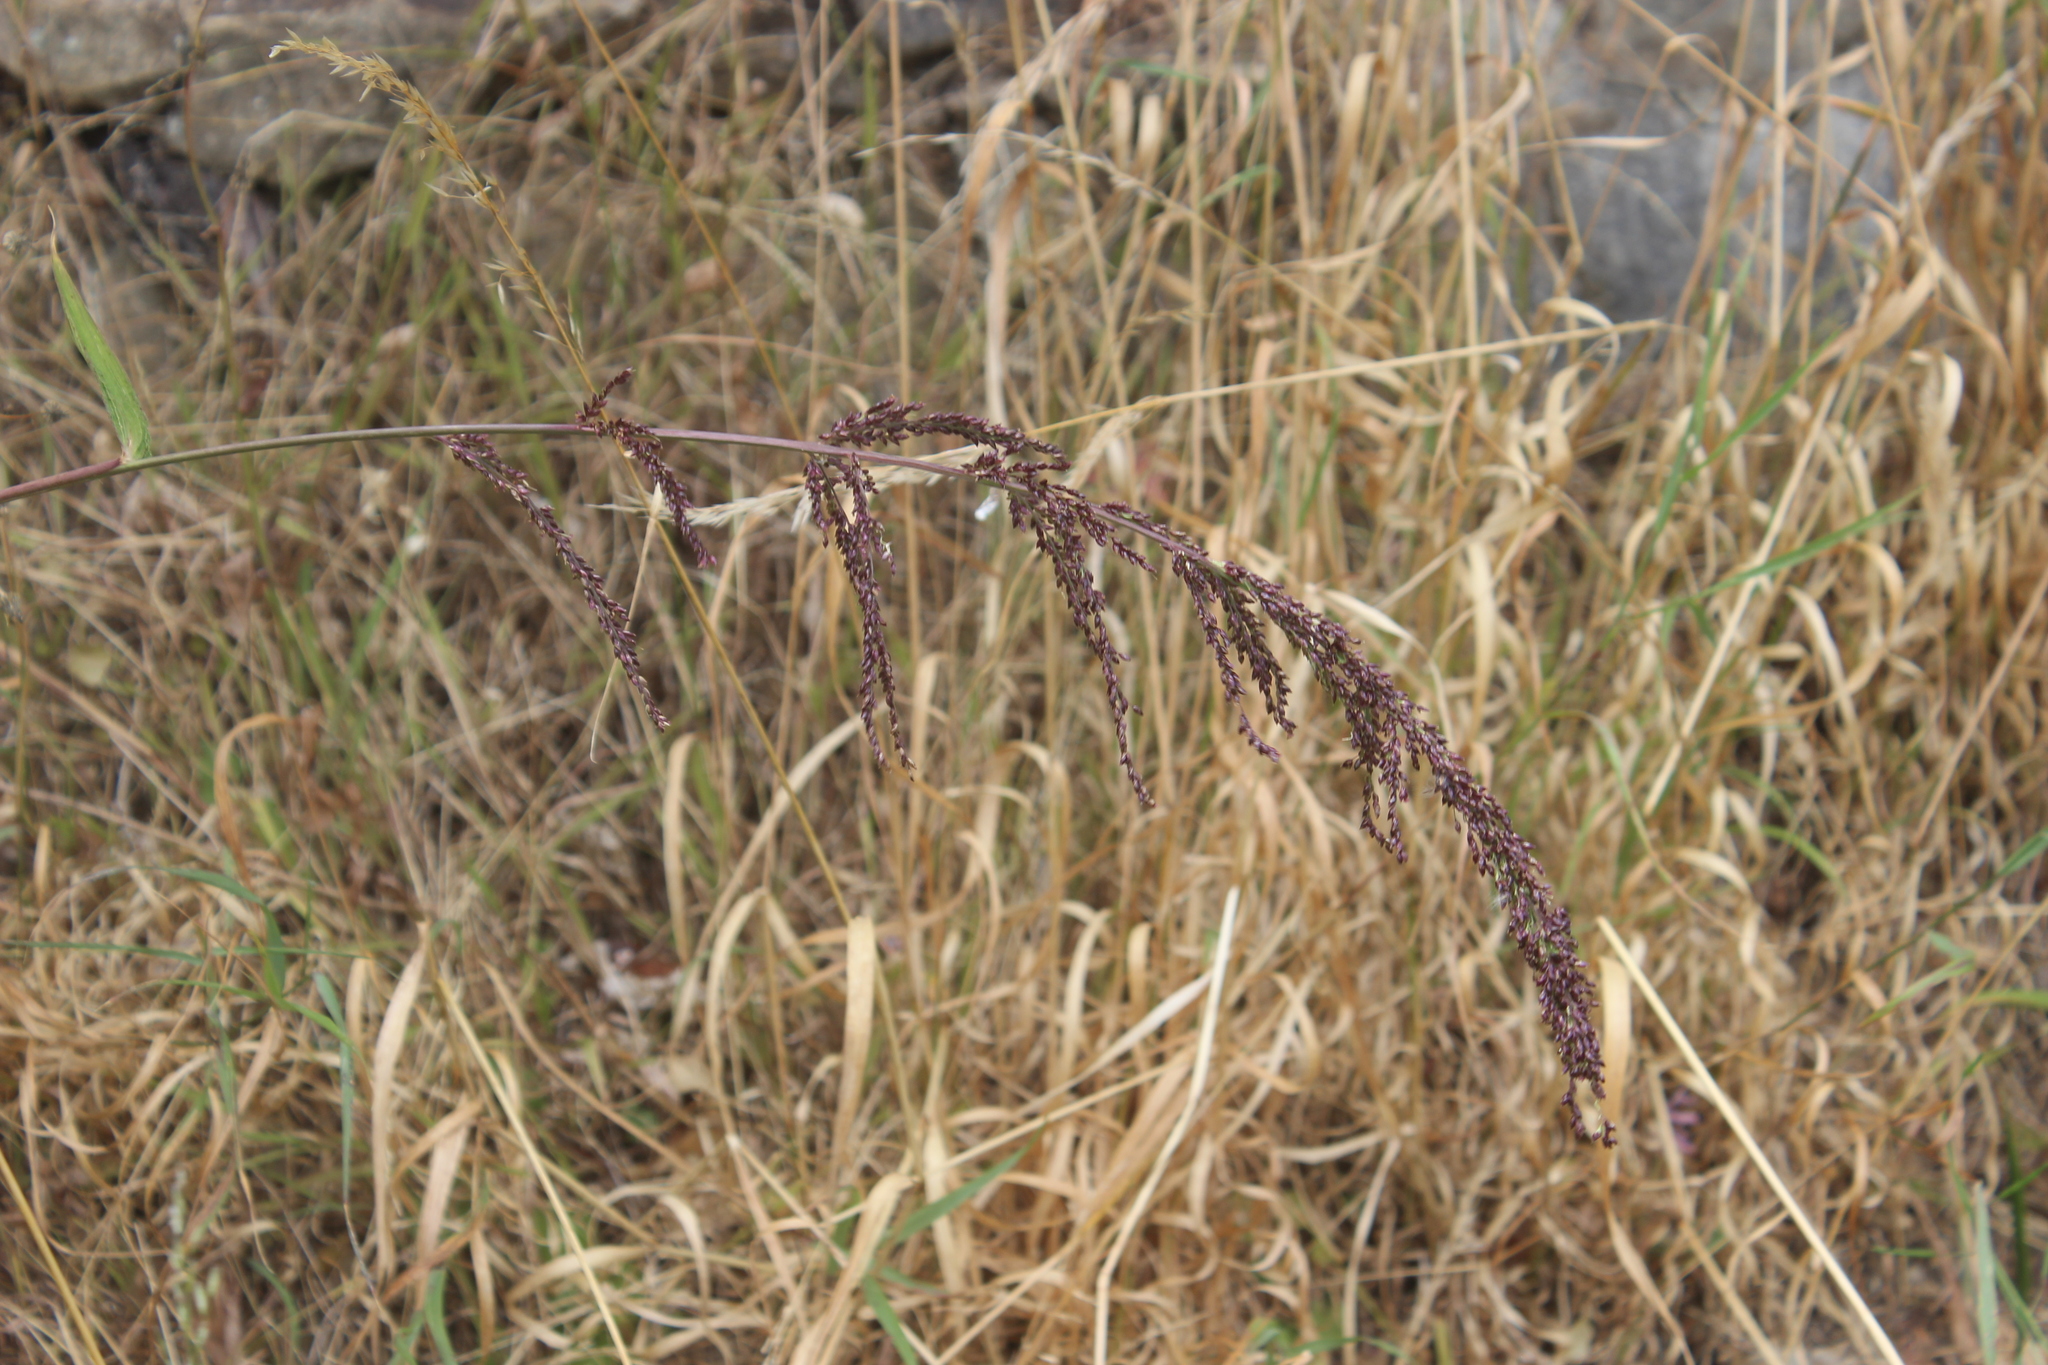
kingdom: Plantae
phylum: Tracheophyta
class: Liliopsida
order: Poales
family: Poaceae
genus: Setaria
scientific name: Setaria palmifolia
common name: Broadleaved bristlegrass
